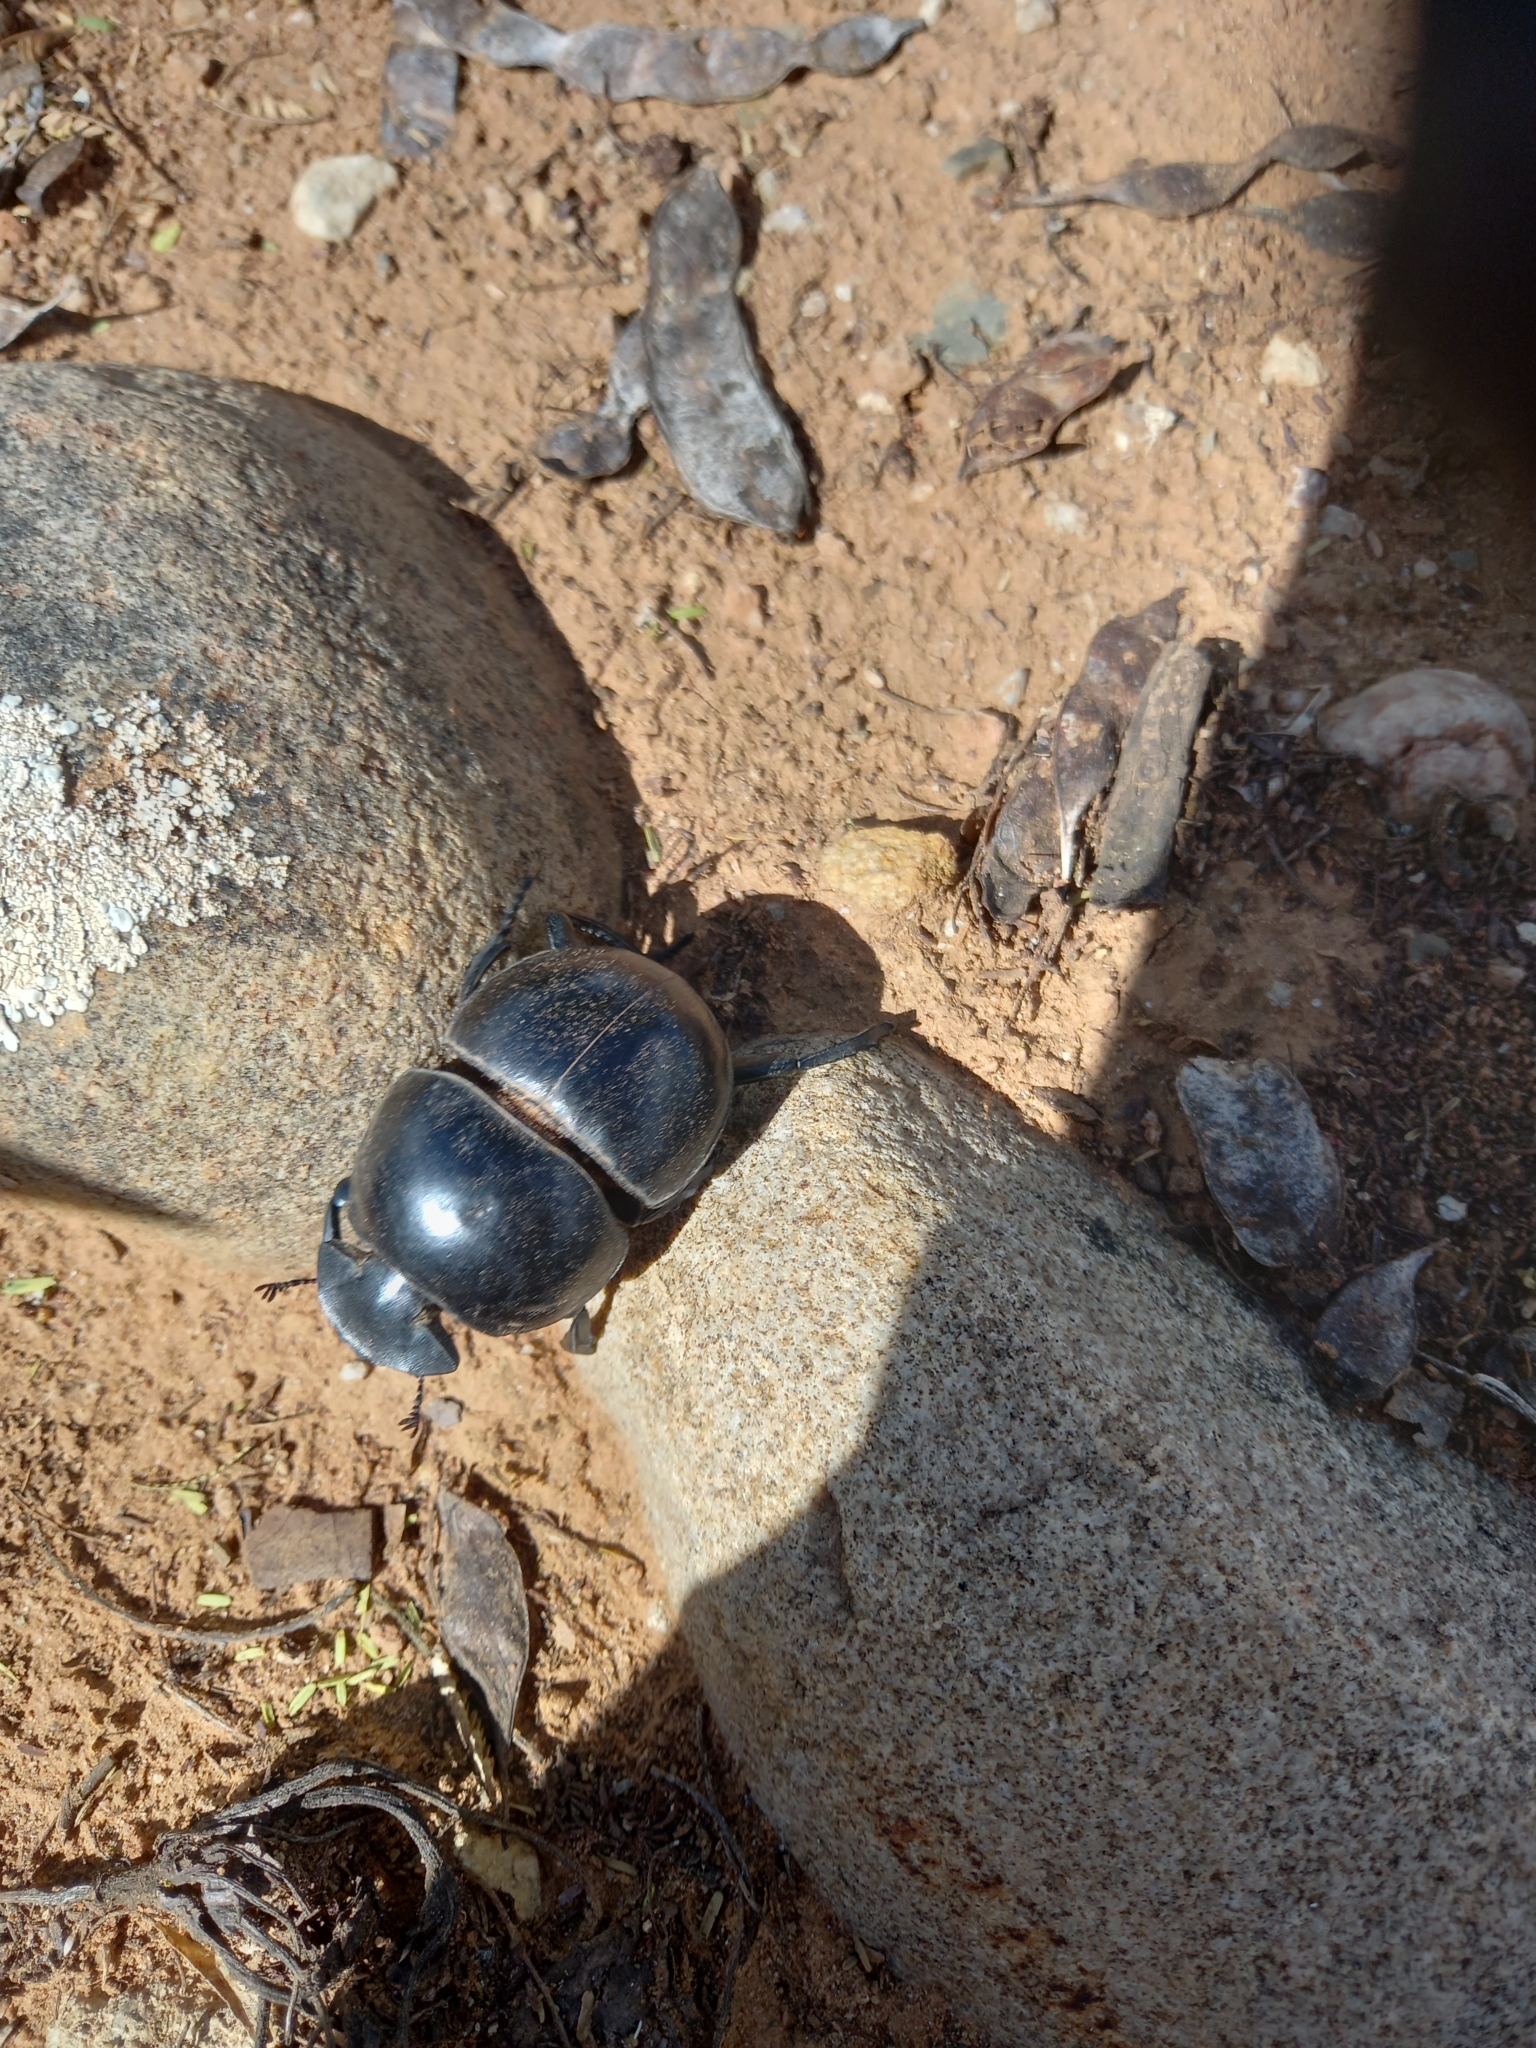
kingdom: Animalia
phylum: Arthropoda
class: Insecta
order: Coleoptera
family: Scarabaeidae
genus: Circellium
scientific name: Circellium bacchus
